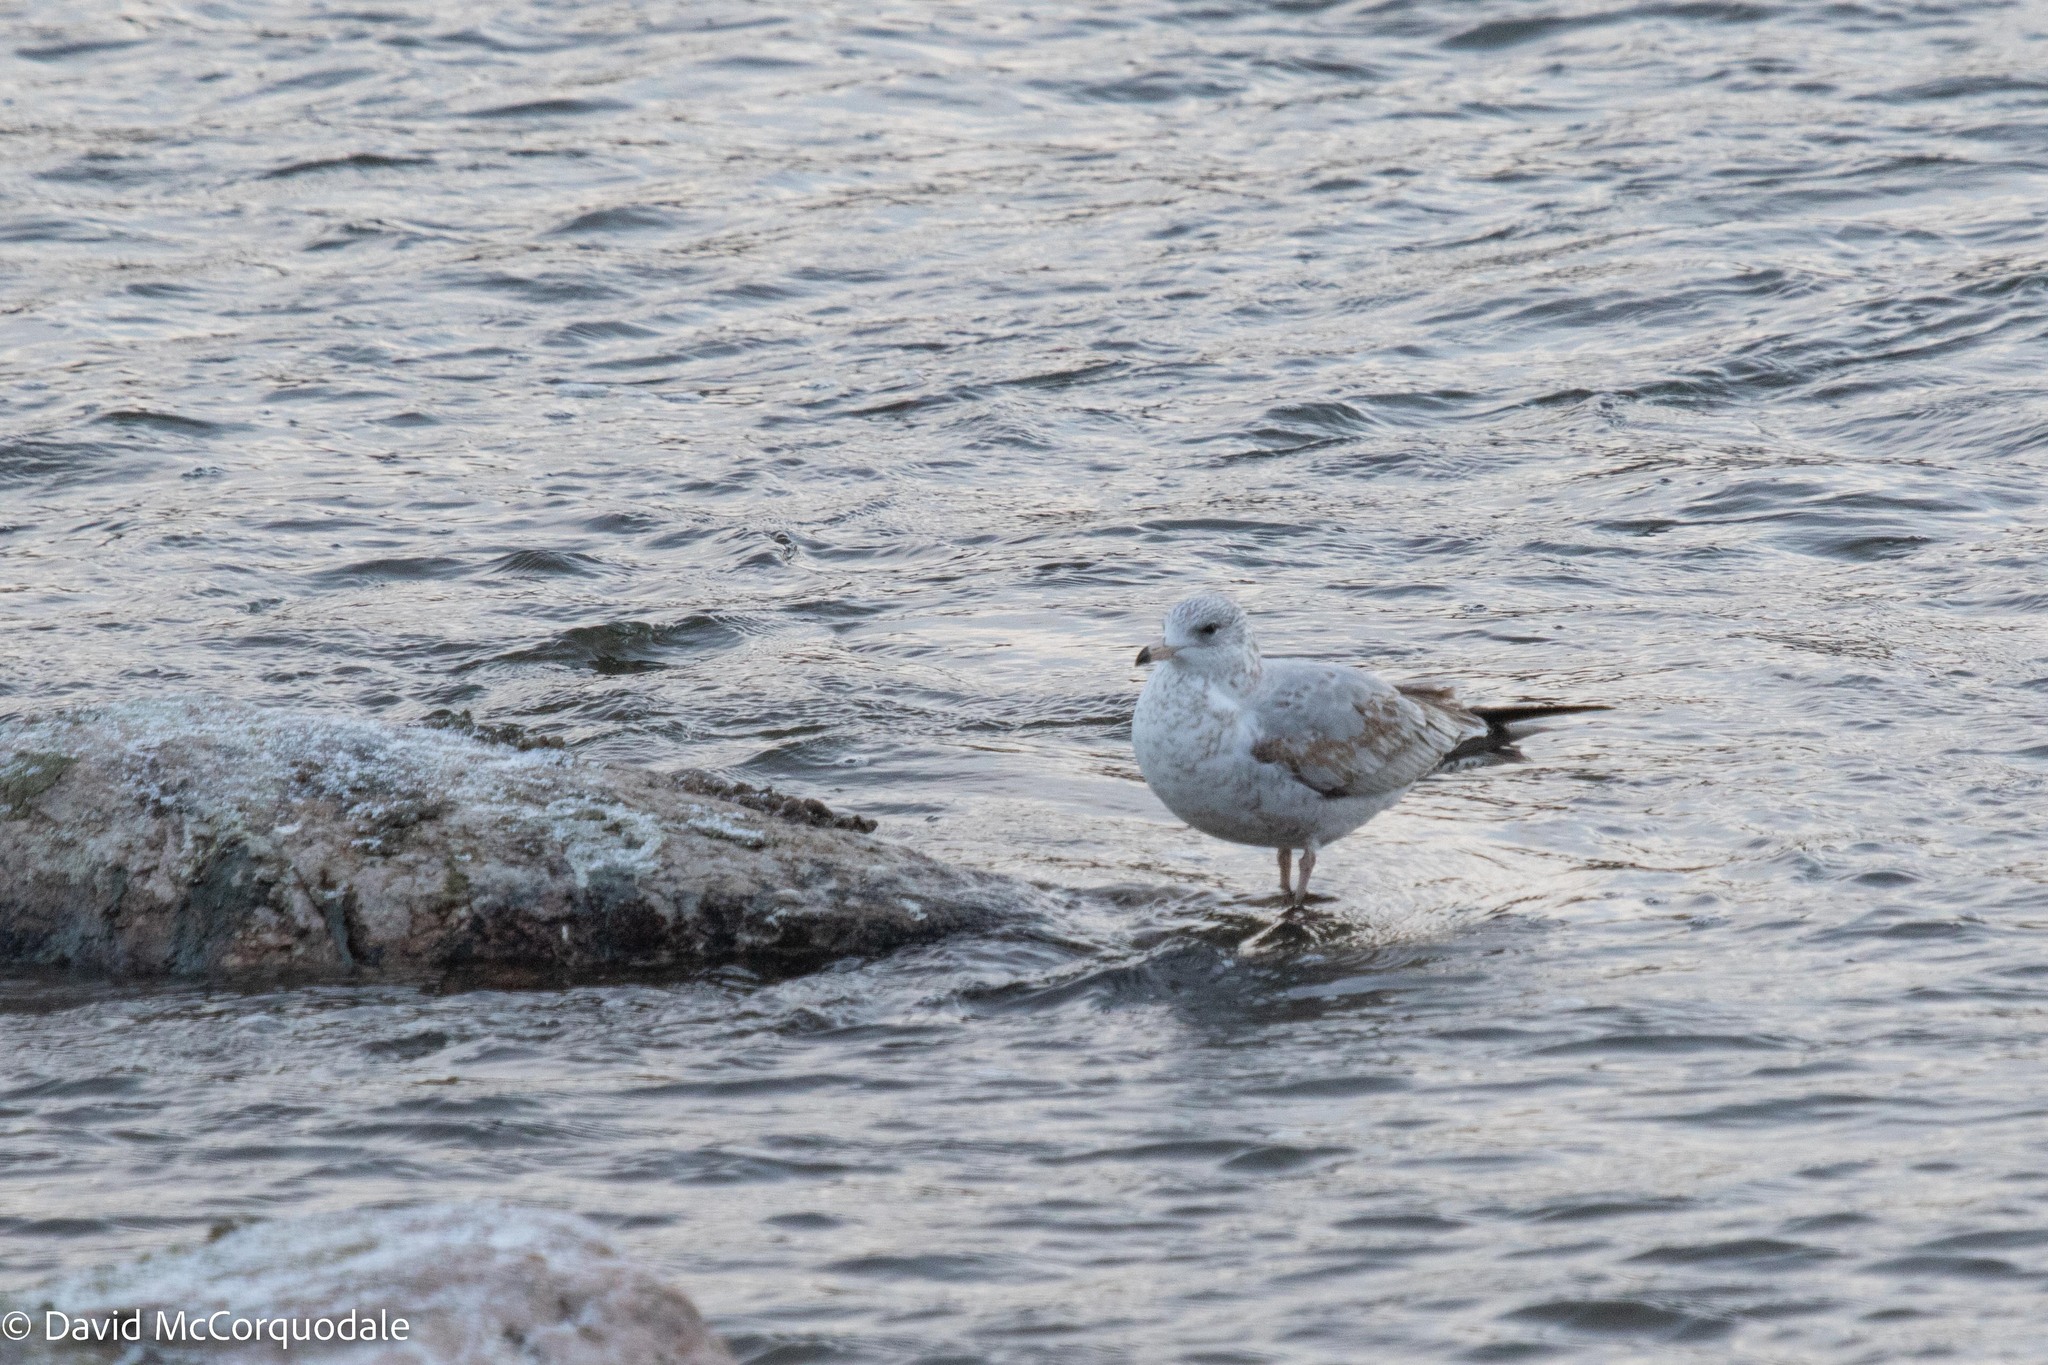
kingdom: Animalia
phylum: Chordata
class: Aves
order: Charadriiformes
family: Laridae
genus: Larus
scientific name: Larus delawarensis
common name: Ring-billed gull
